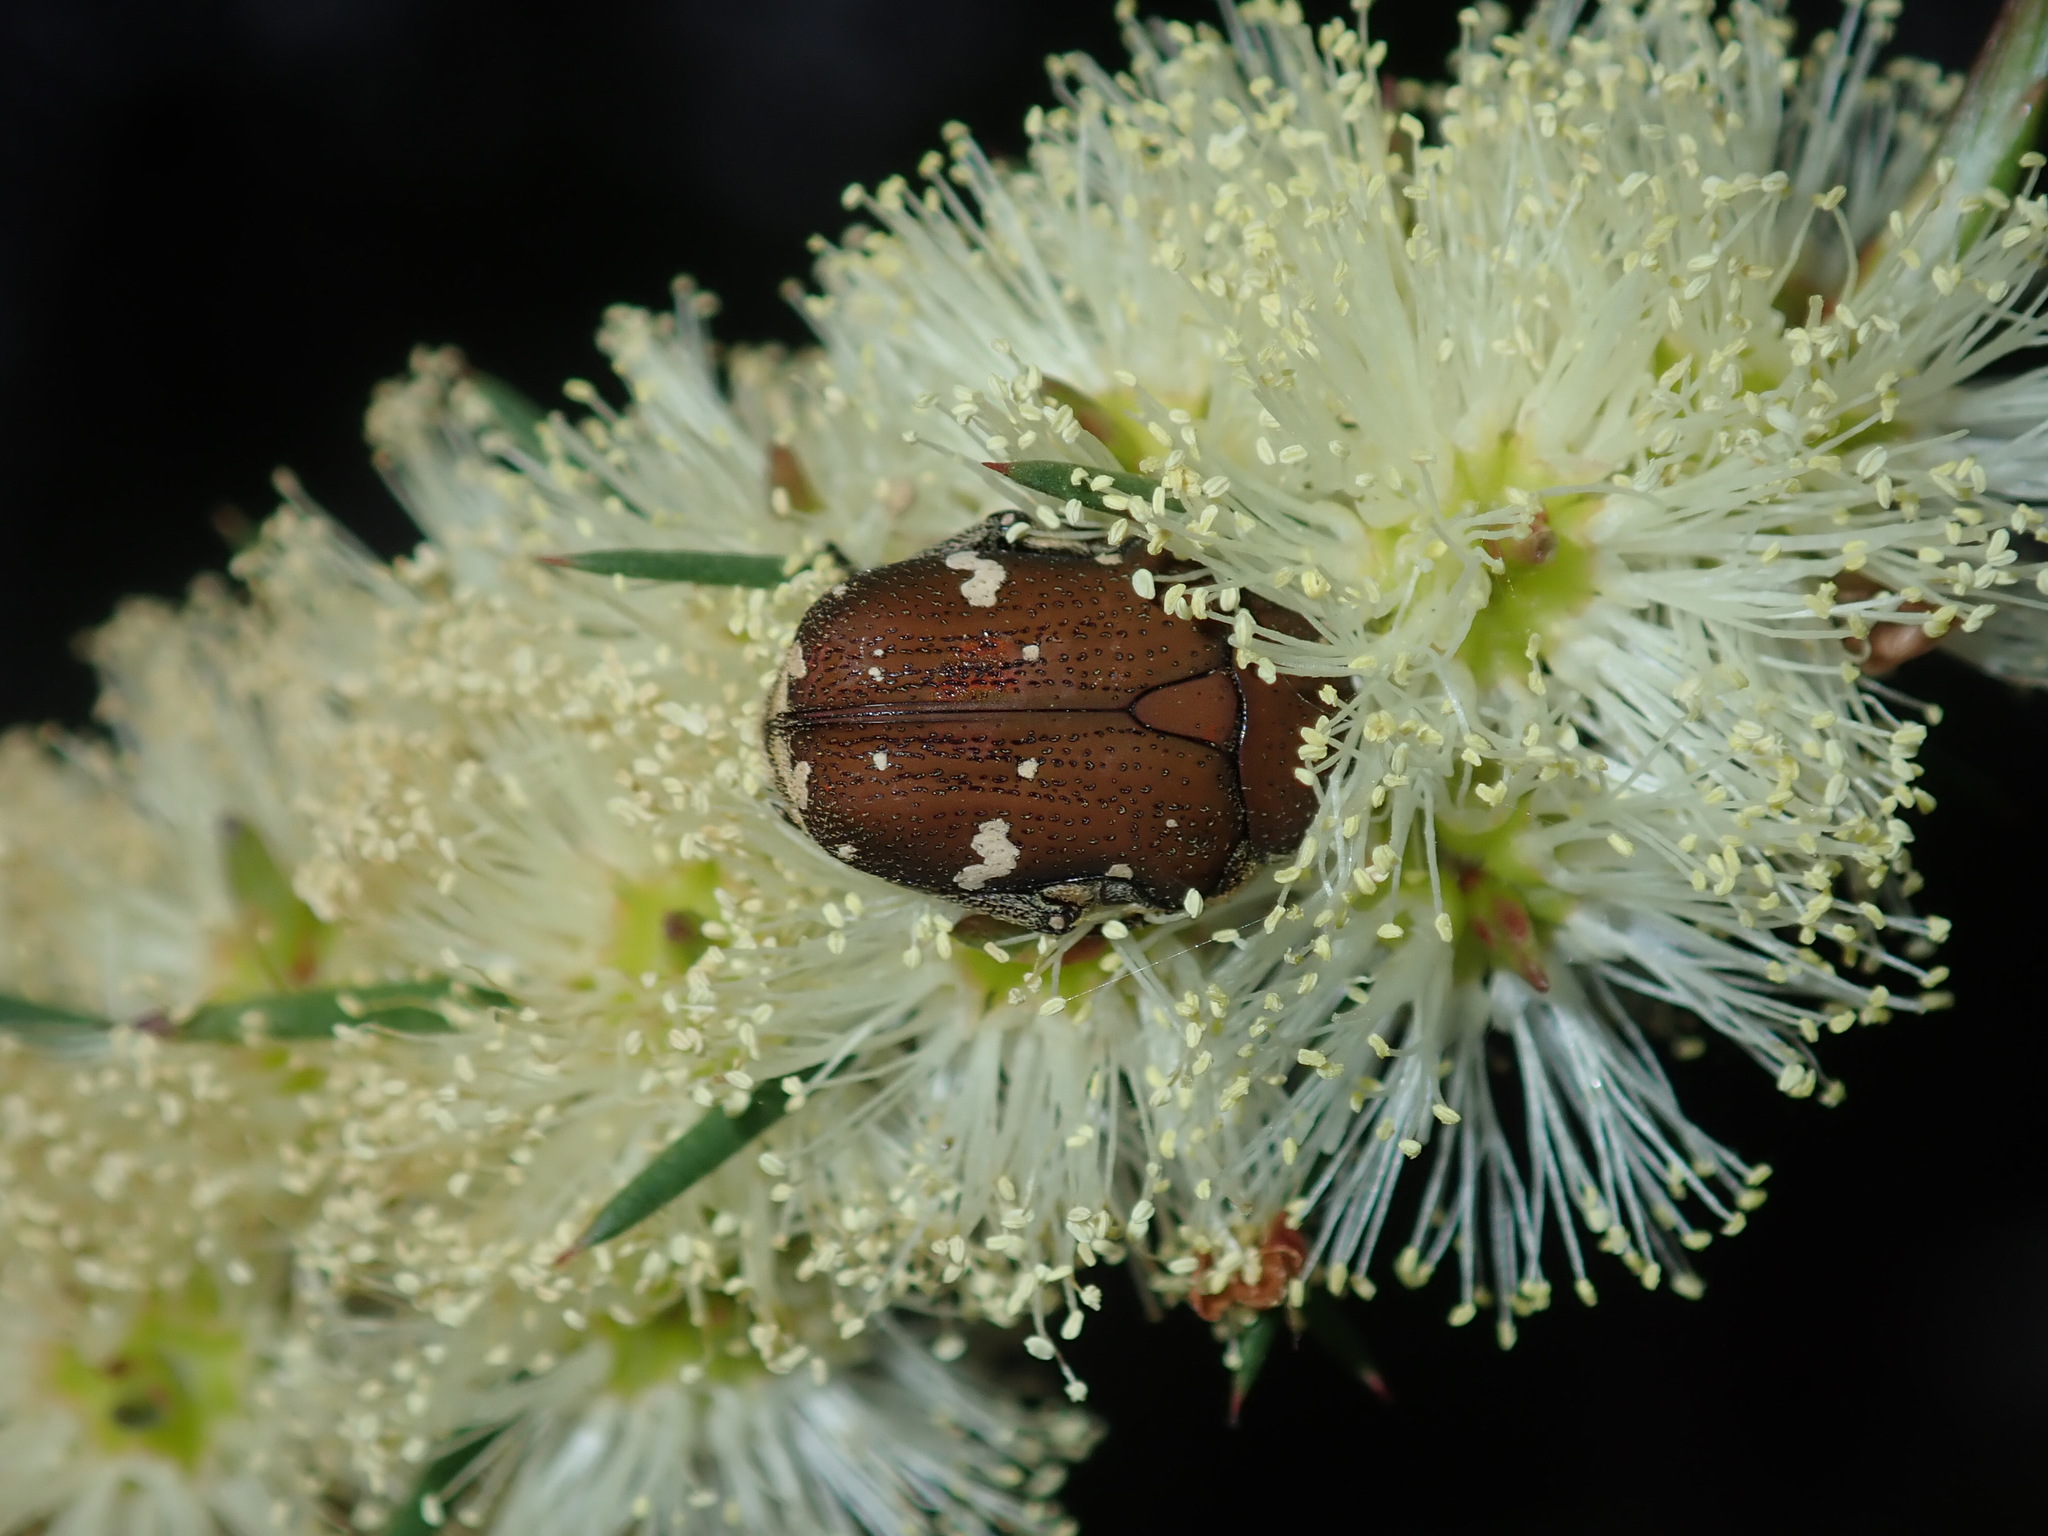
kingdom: Animalia
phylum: Arthropoda
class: Insecta
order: Coleoptera
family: Scarabaeidae
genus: Glycyphana
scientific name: Glycyphana stolata
